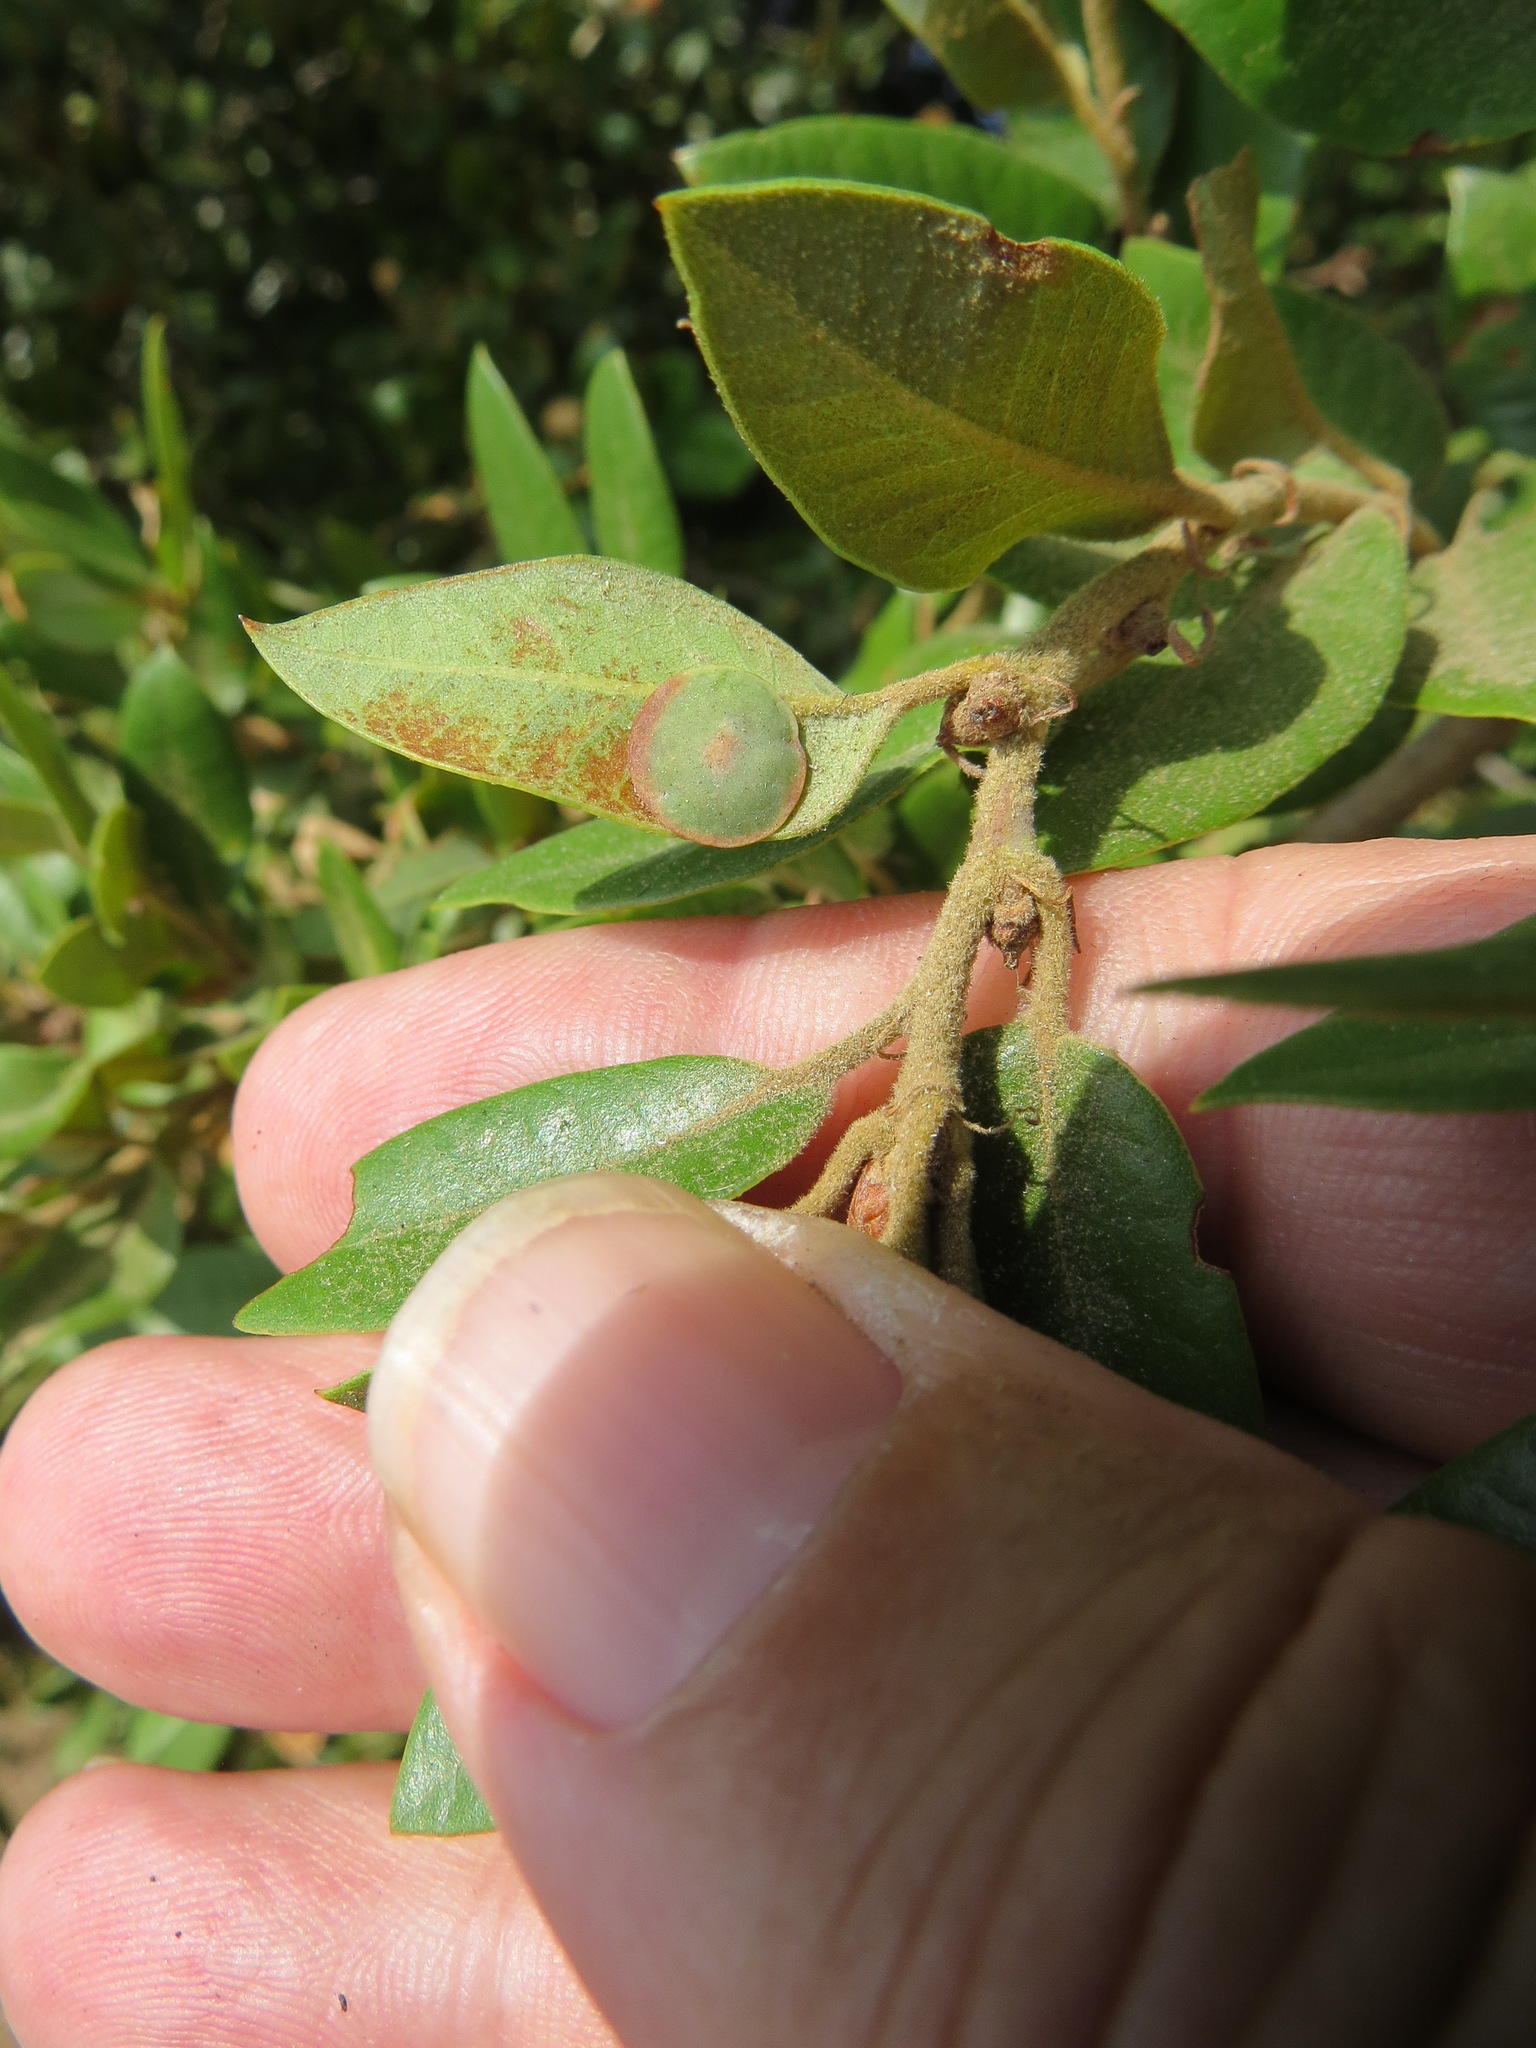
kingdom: Animalia
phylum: Arthropoda
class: Insecta
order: Hymenoptera
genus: Paracraspis
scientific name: Paracraspis
